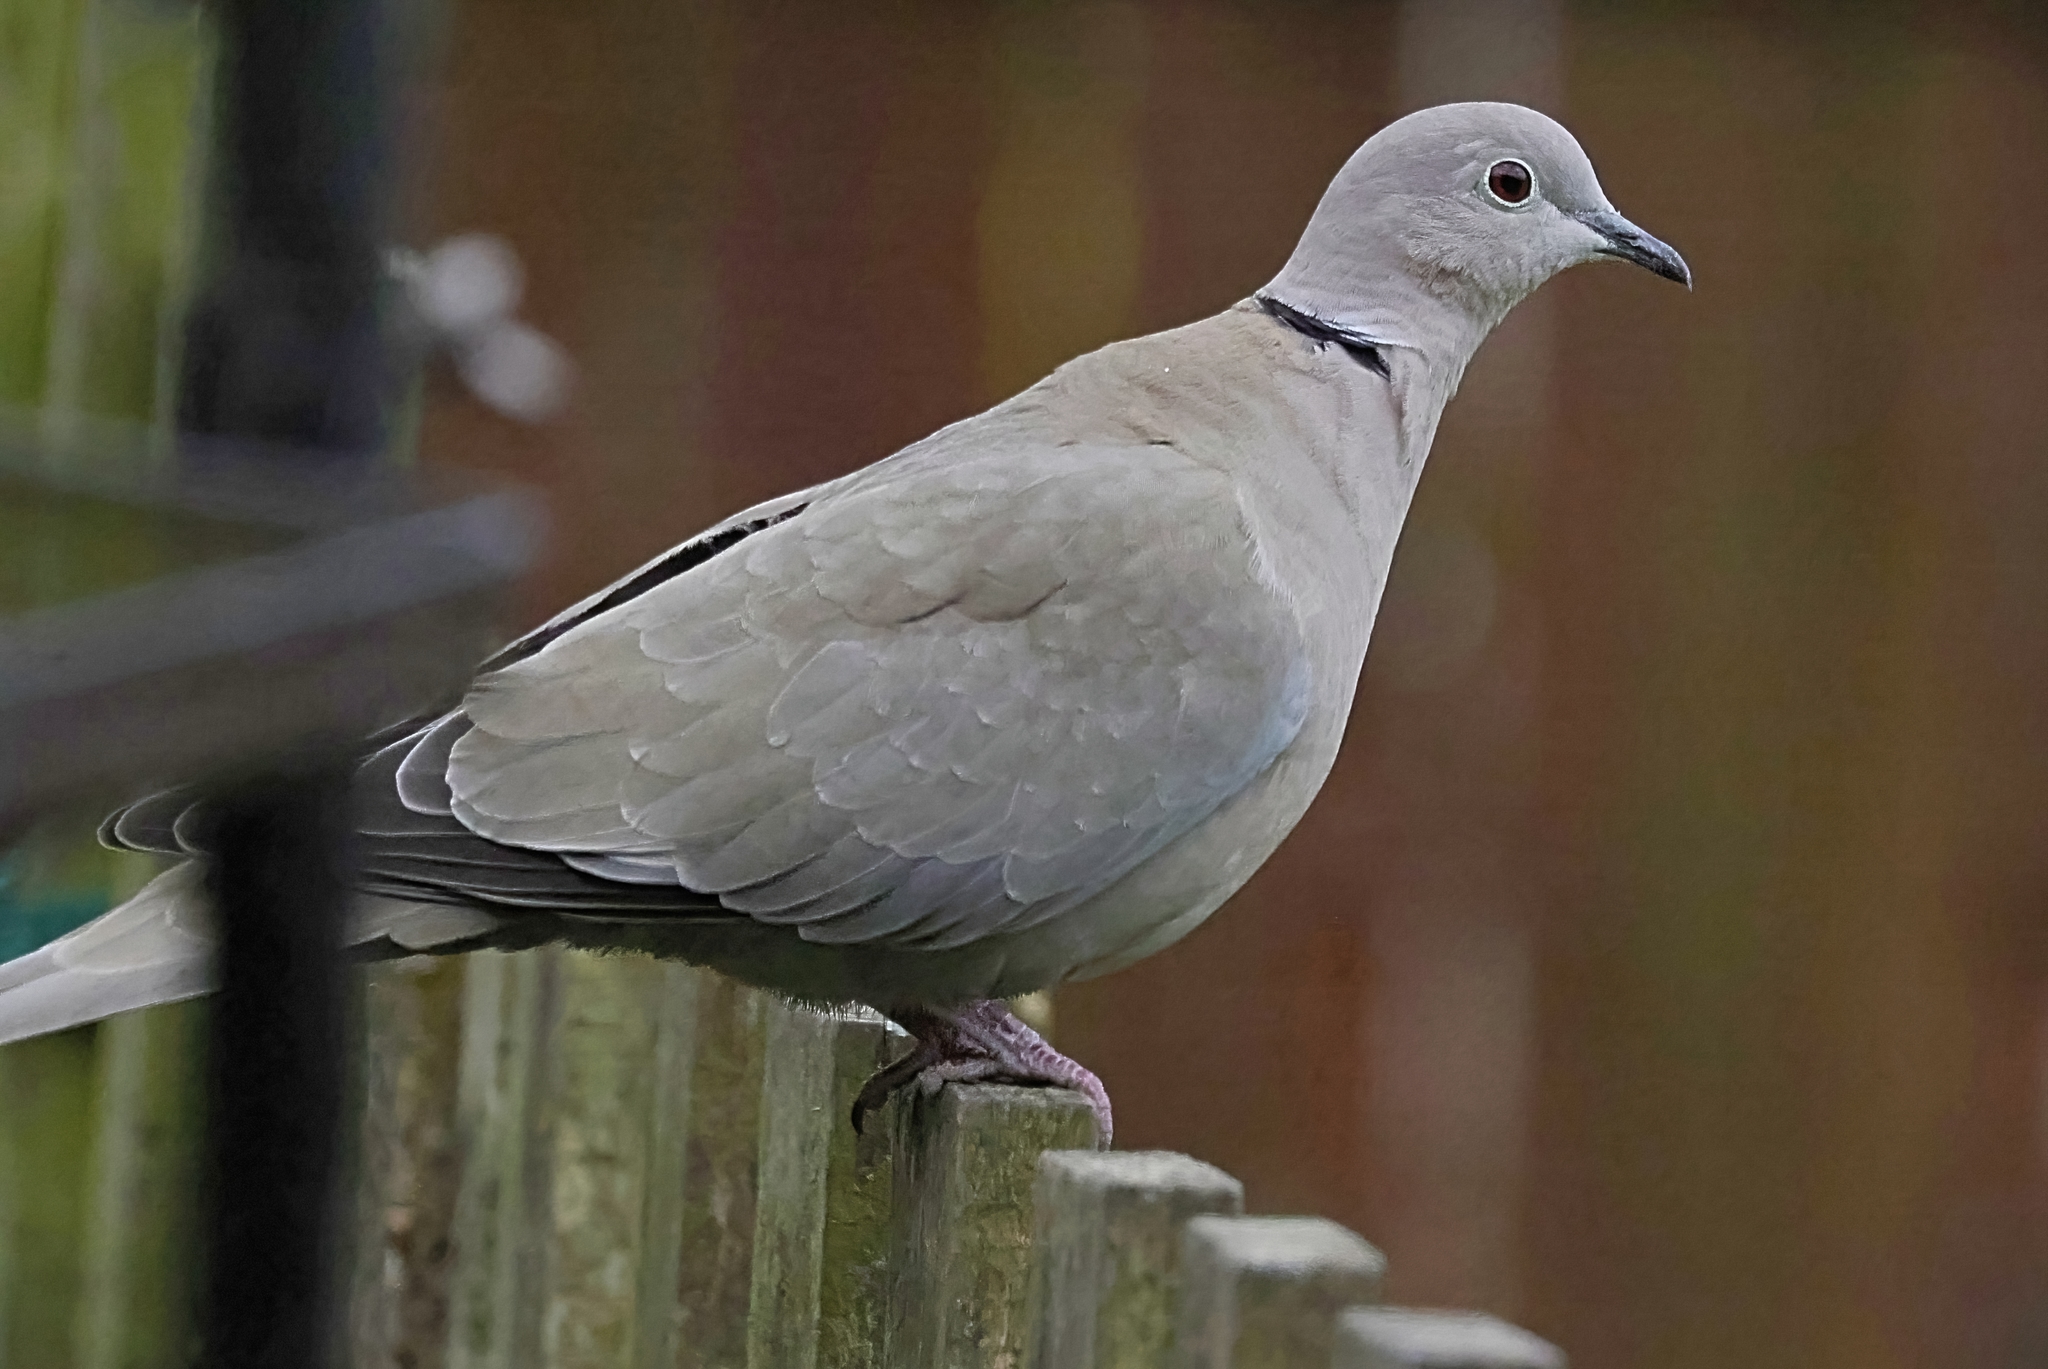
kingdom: Animalia
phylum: Chordata
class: Aves
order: Columbiformes
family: Columbidae
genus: Streptopelia
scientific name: Streptopelia decaocto
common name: Eurasian collared dove
